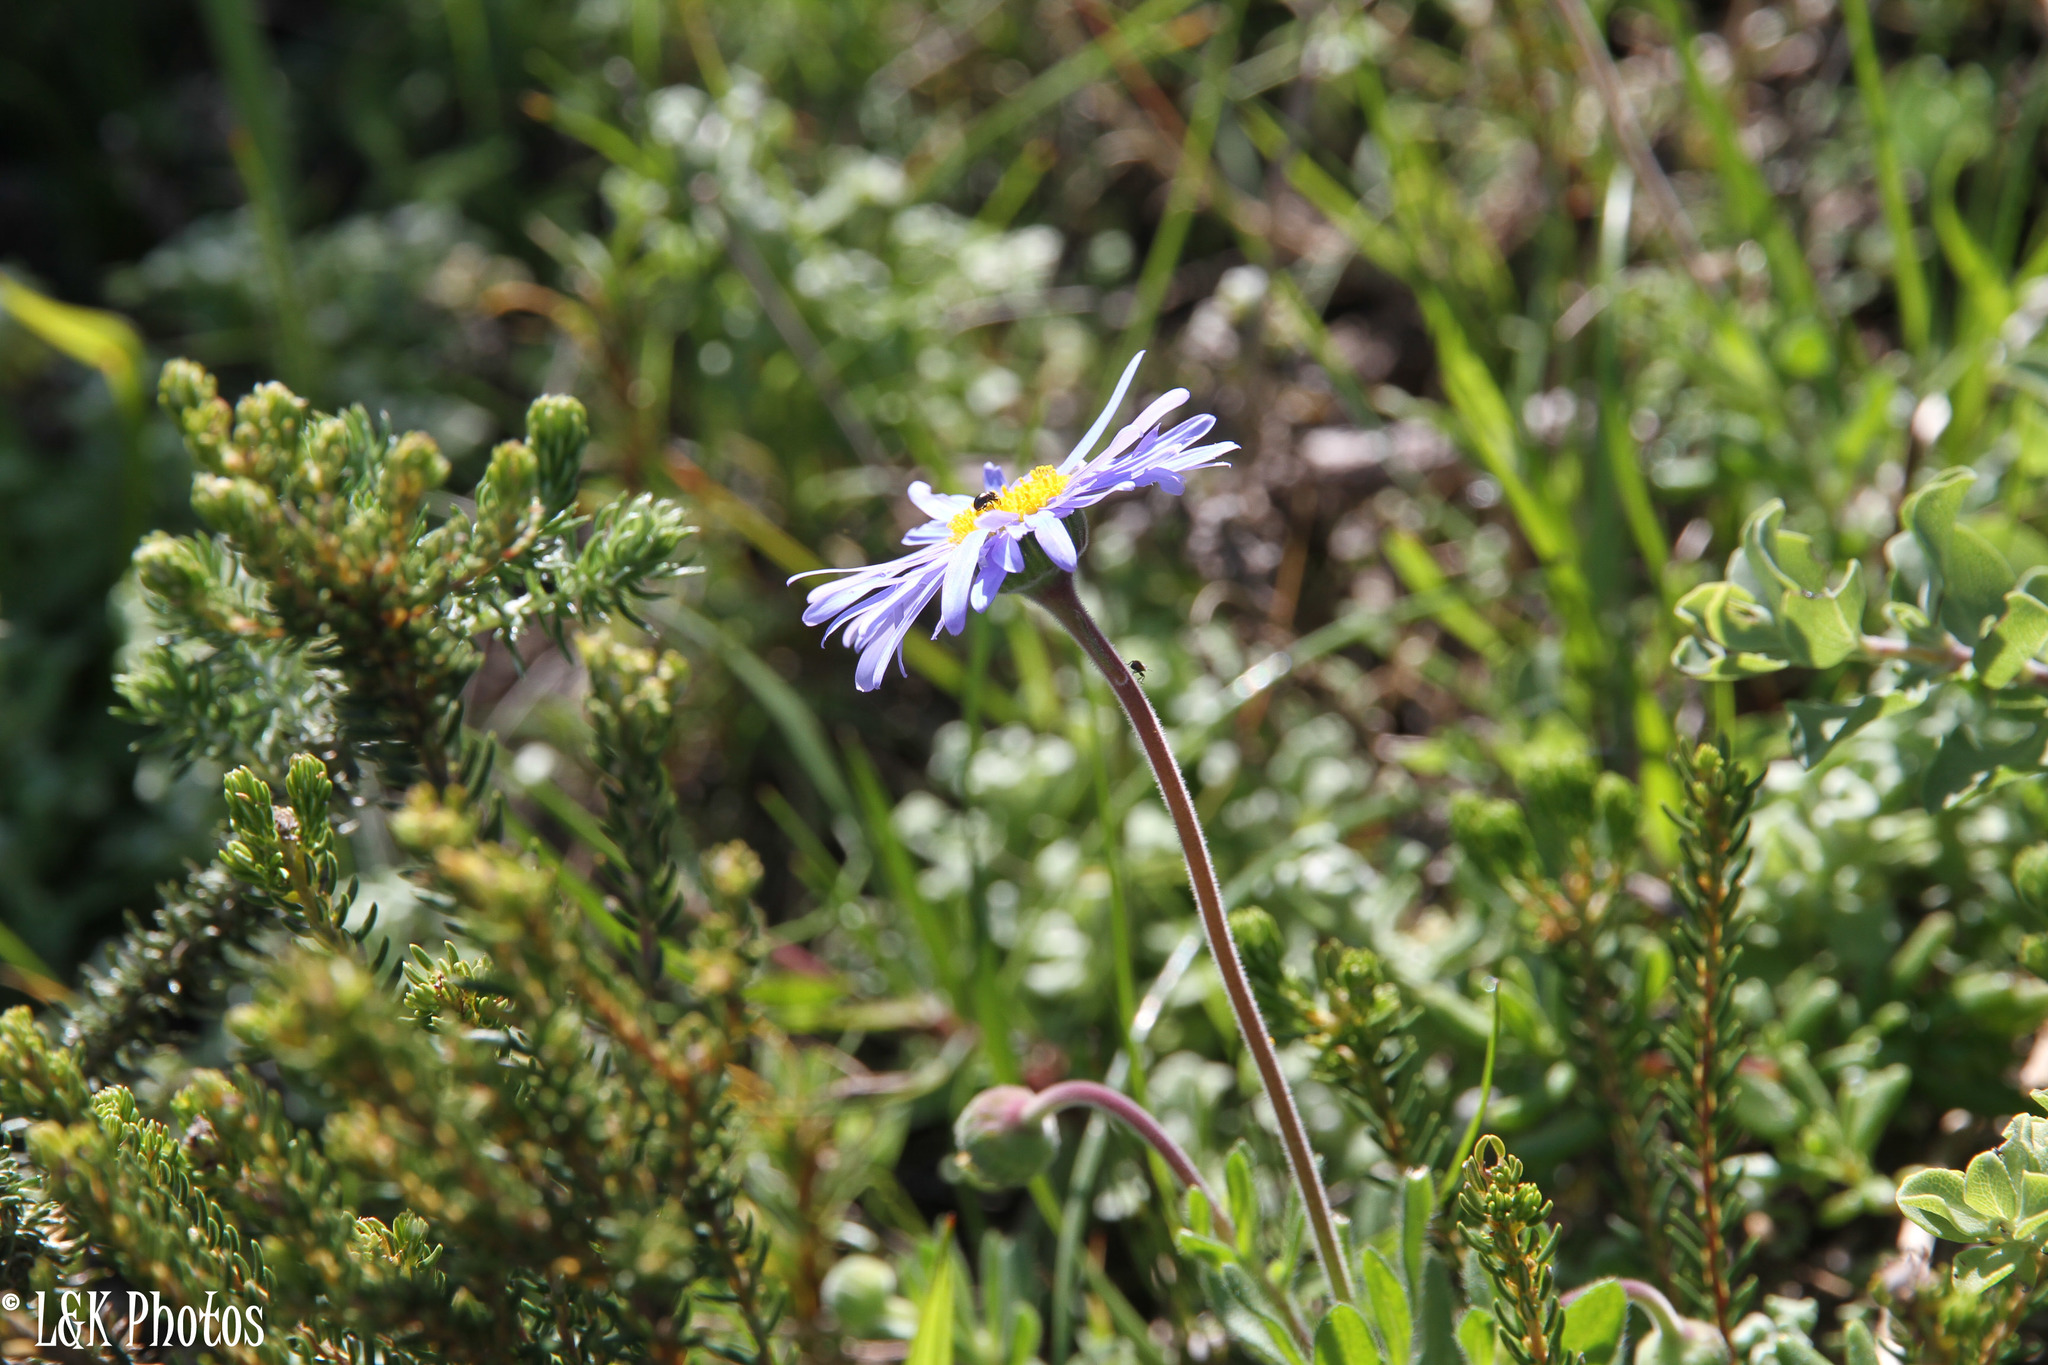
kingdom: Plantae
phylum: Tracheophyta
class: Magnoliopsida
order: Asterales
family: Asteraceae
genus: Felicia
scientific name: Felicia amoena
